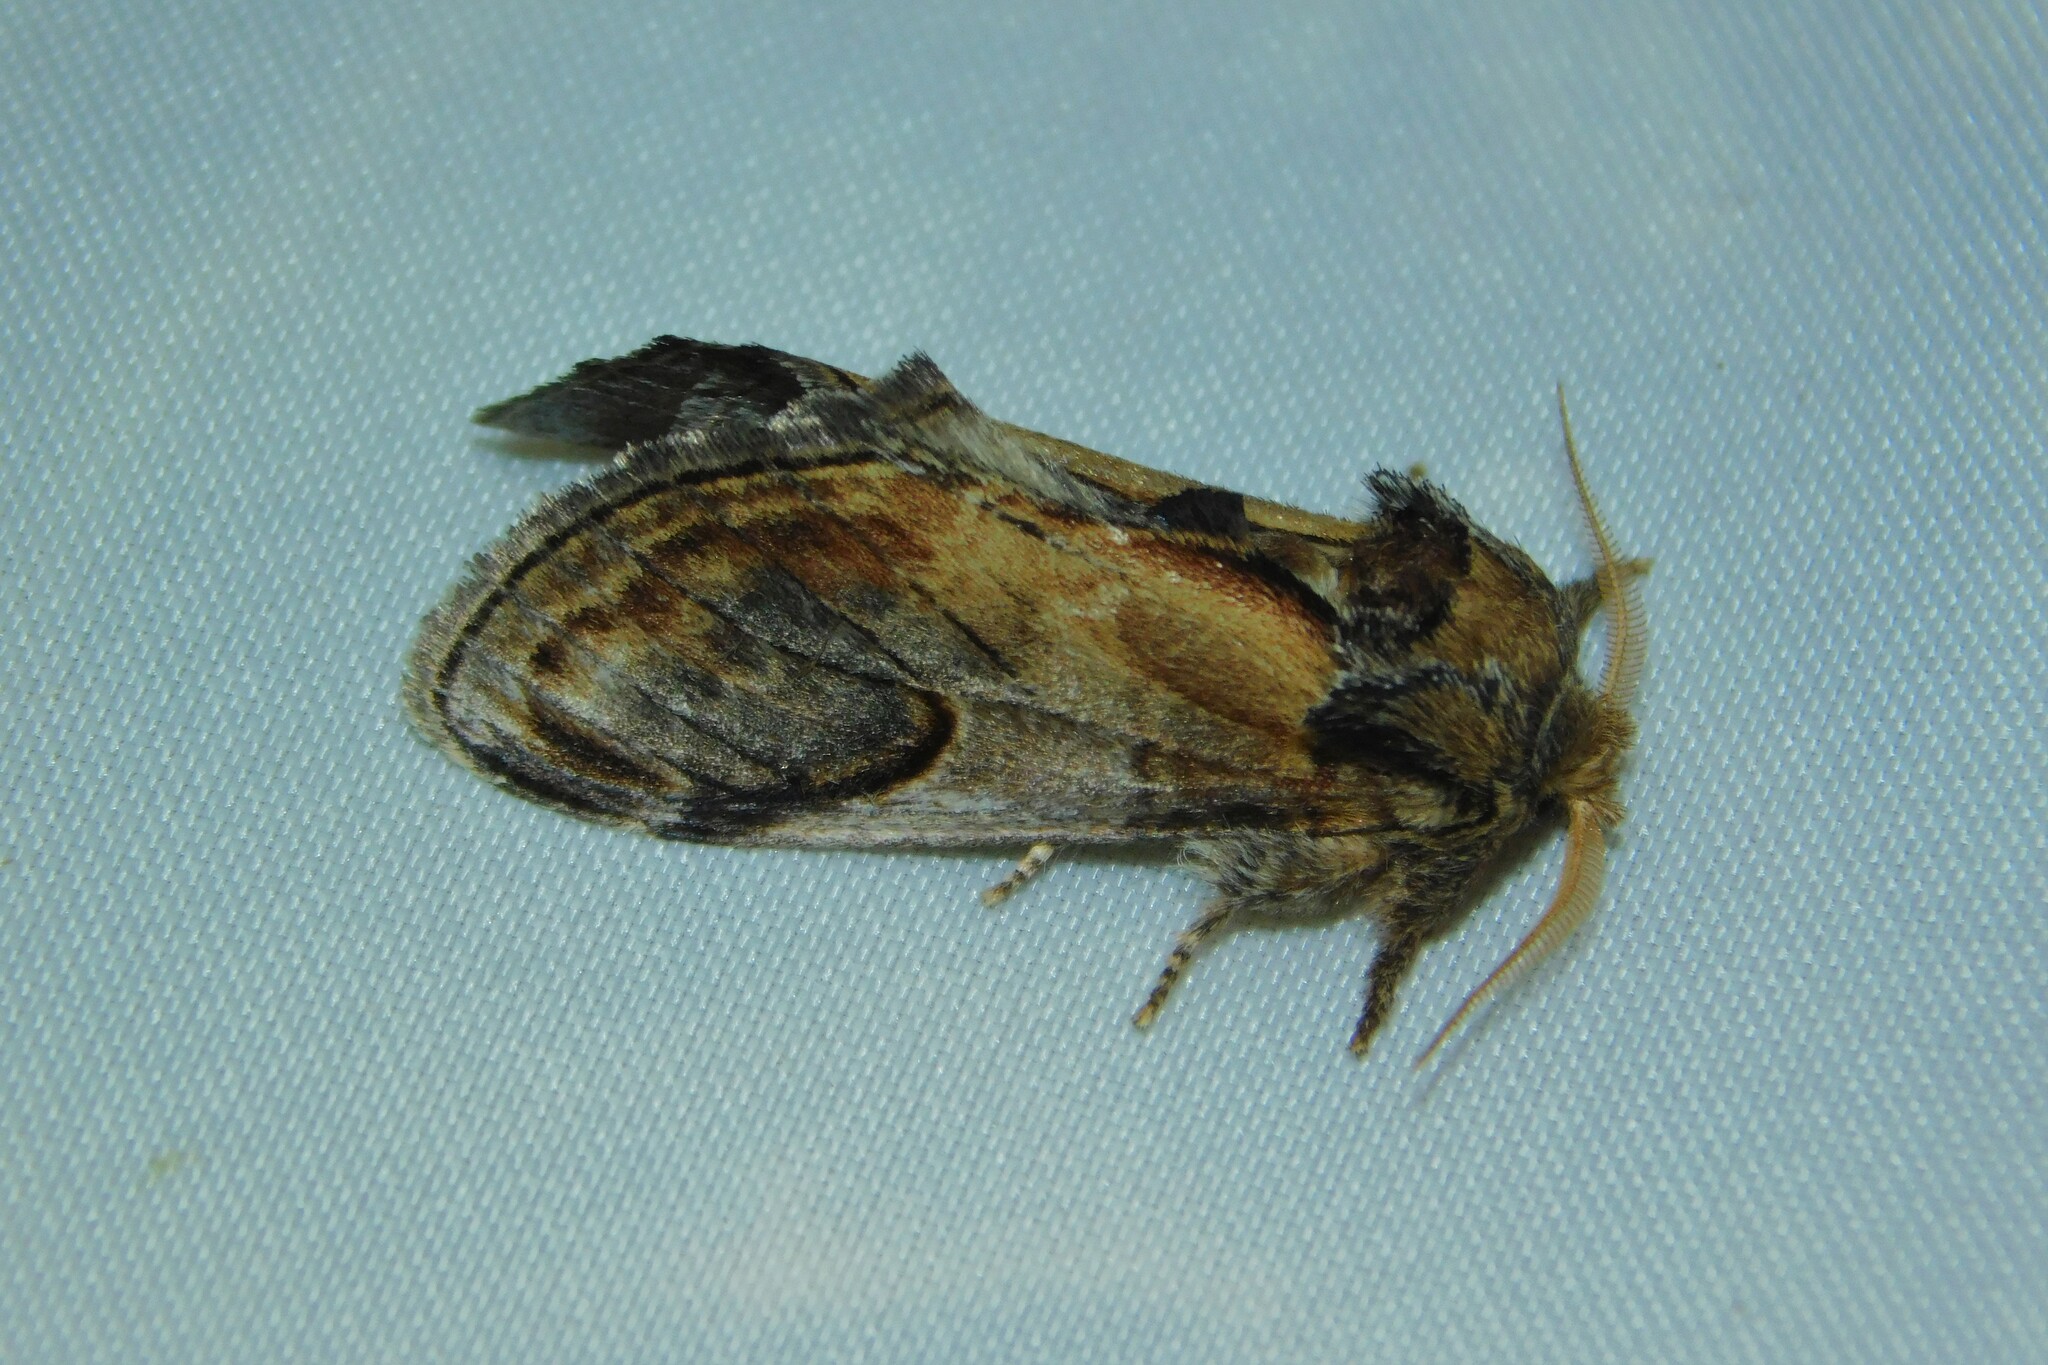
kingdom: Animalia
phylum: Arthropoda
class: Insecta
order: Lepidoptera
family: Notodontidae
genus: Notodonta
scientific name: Notodonta ziczac
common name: Pebble prominent
